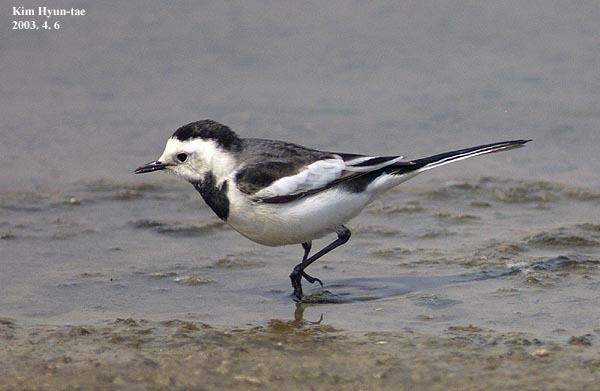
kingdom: Animalia
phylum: Chordata
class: Aves
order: Passeriformes
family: Motacillidae
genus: Motacilla
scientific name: Motacilla alba
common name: White wagtail
